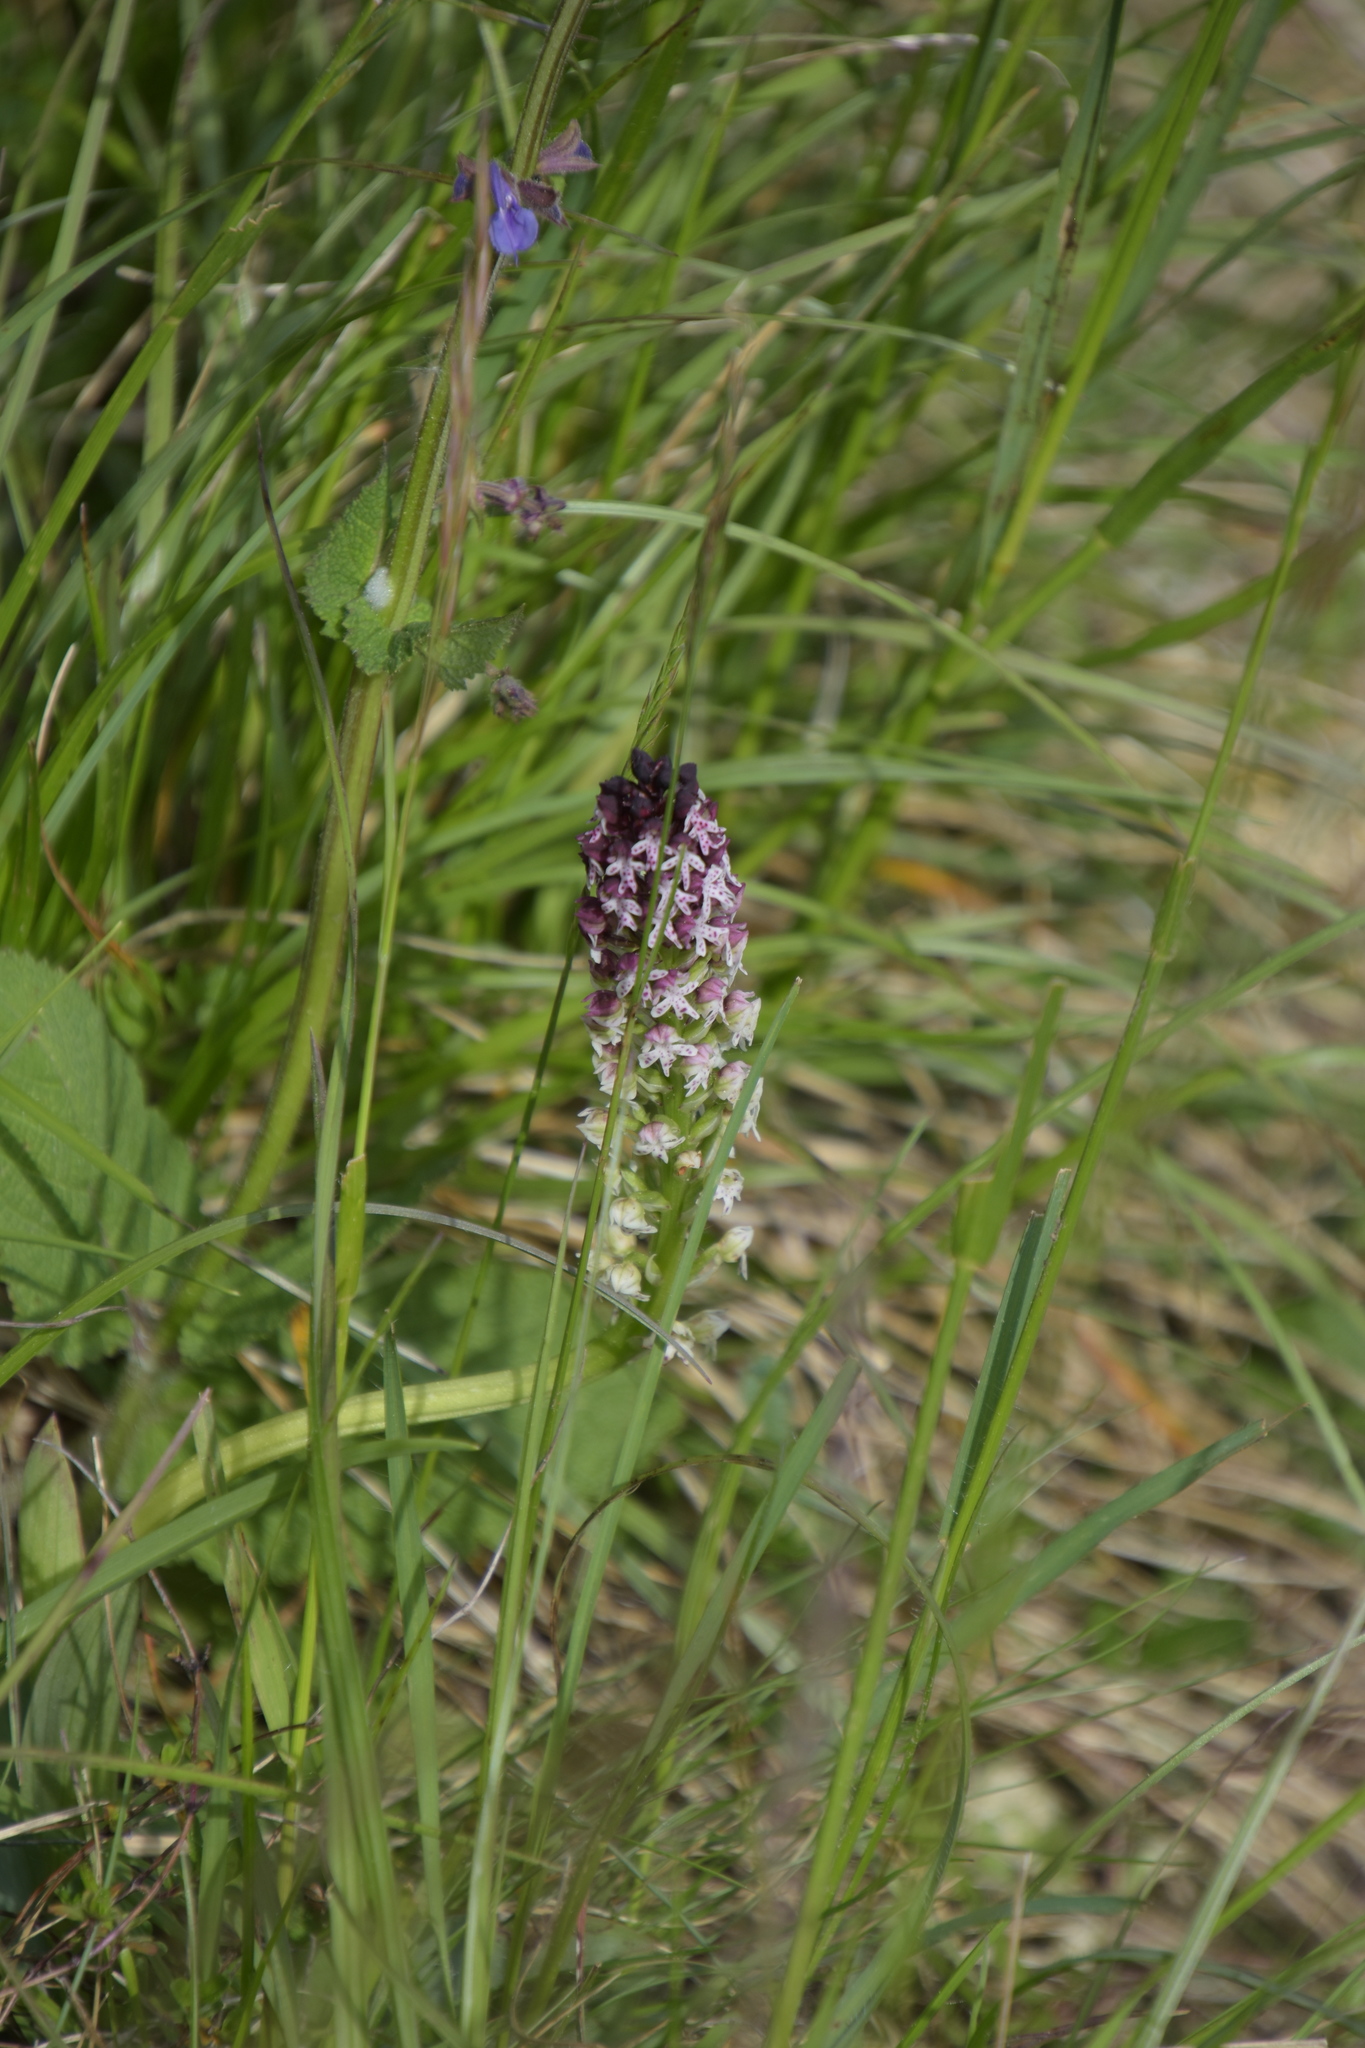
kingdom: Plantae
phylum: Tracheophyta
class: Liliopsida
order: Asparagales
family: Orchidaceae
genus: Neotinea
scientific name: Neotinea ustulata
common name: Burnt orchid
